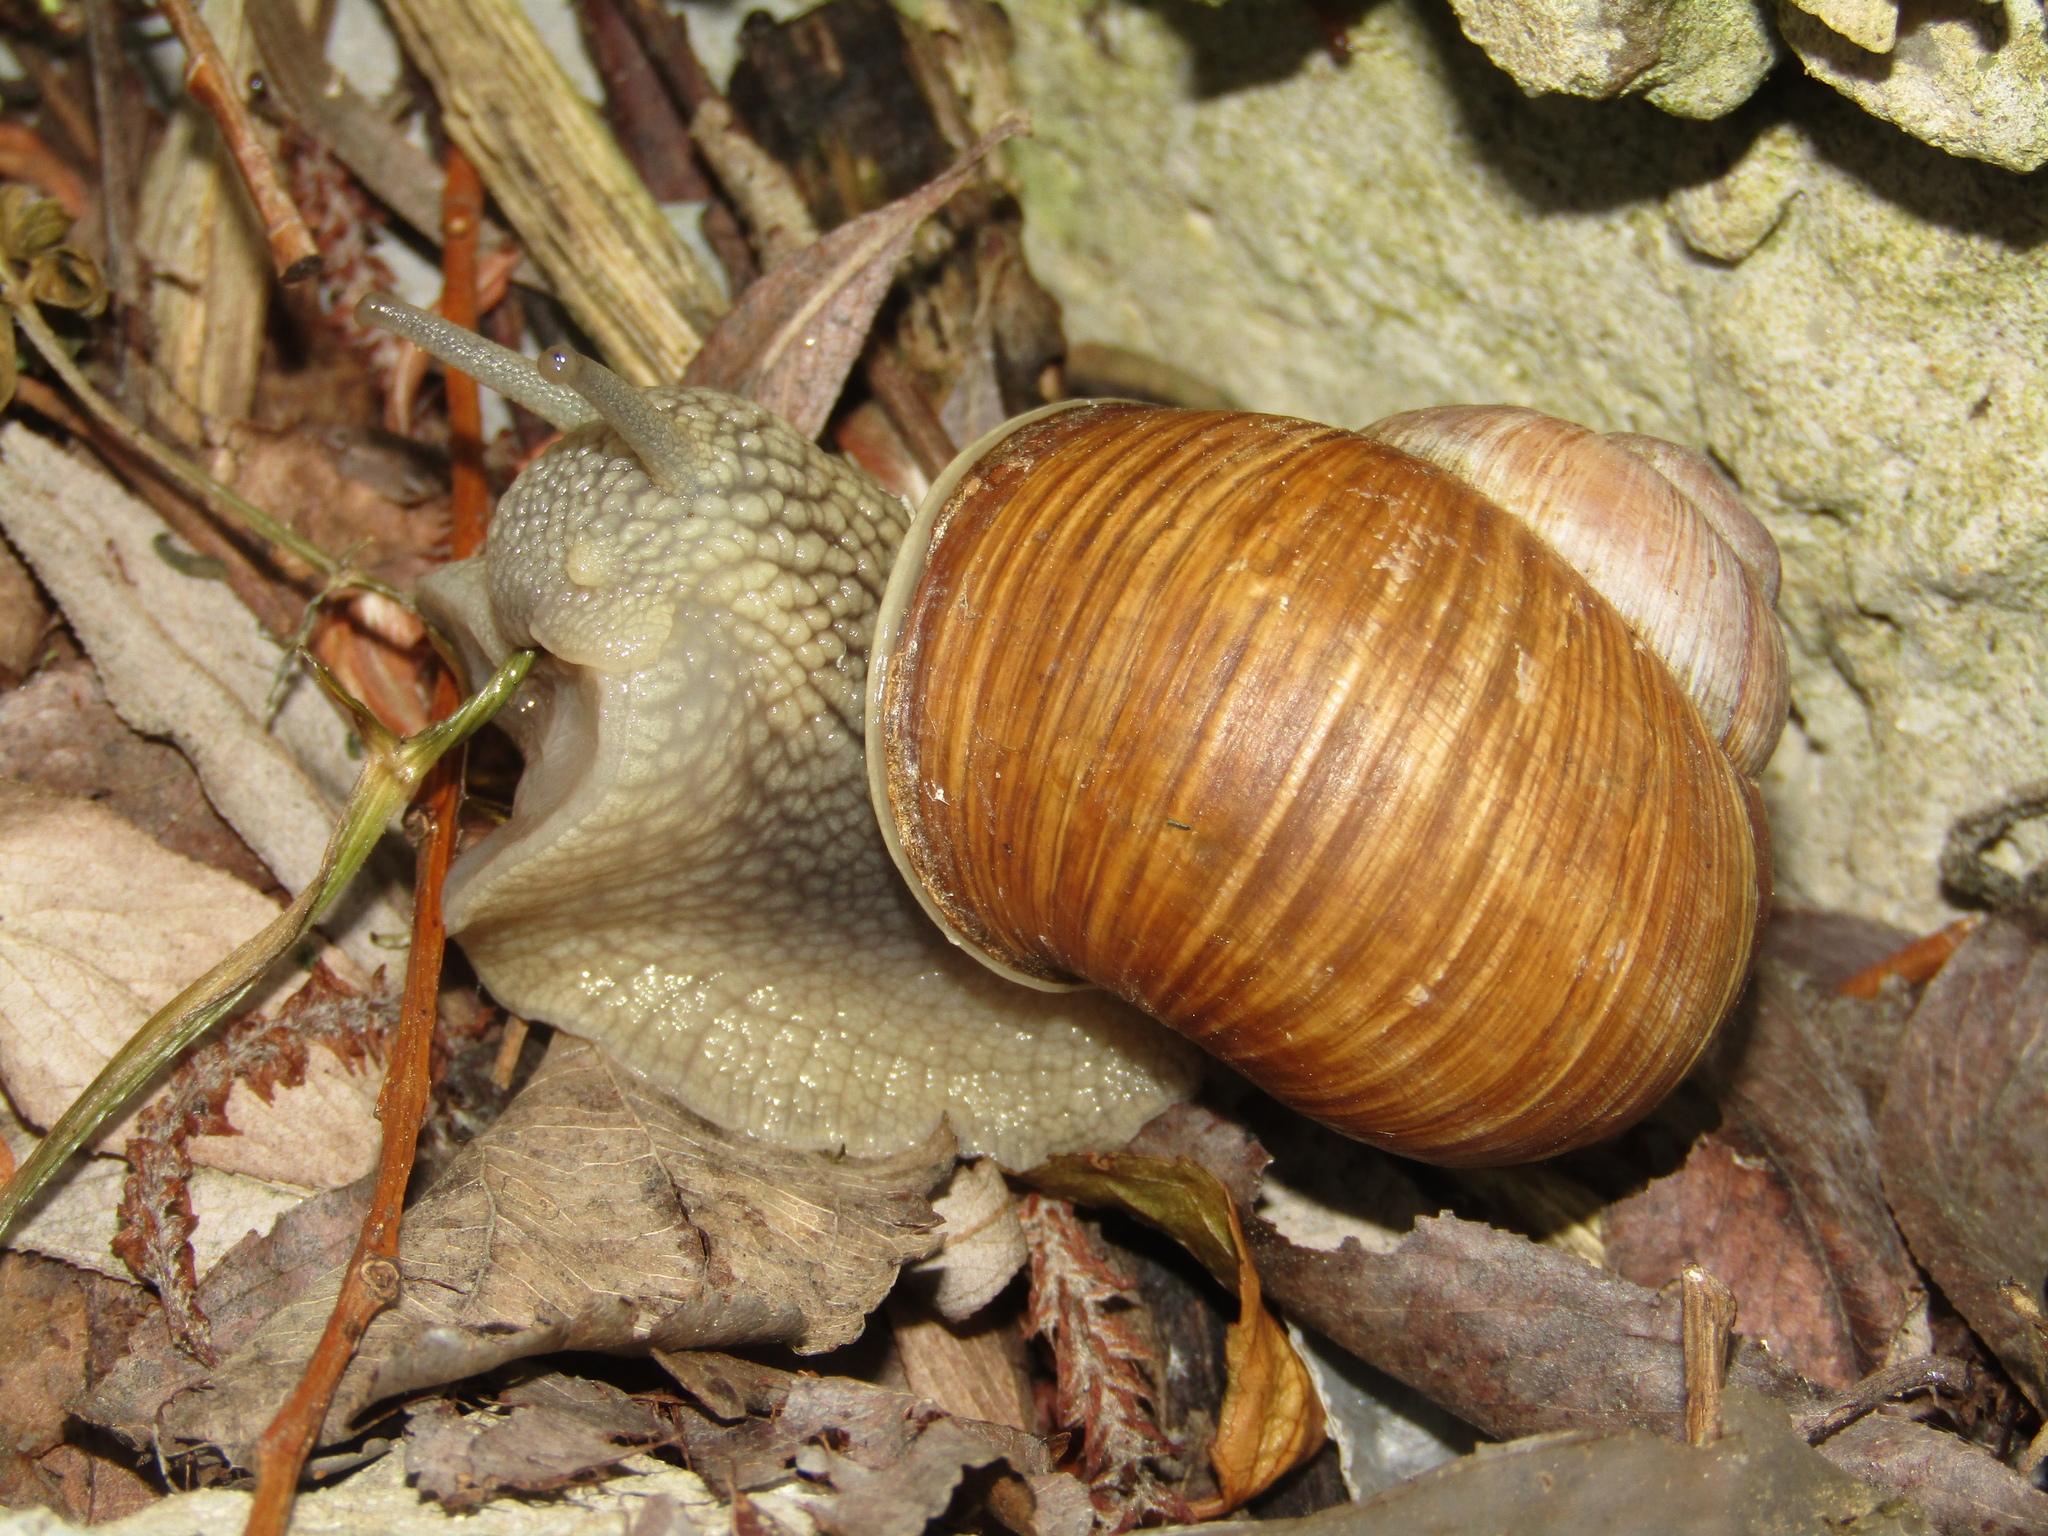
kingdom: Animalia
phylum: Mollusca
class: Gastropoda
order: Stylommatophora
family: Helicidae
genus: Helix
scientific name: Helix pomatia
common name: Roman snail
